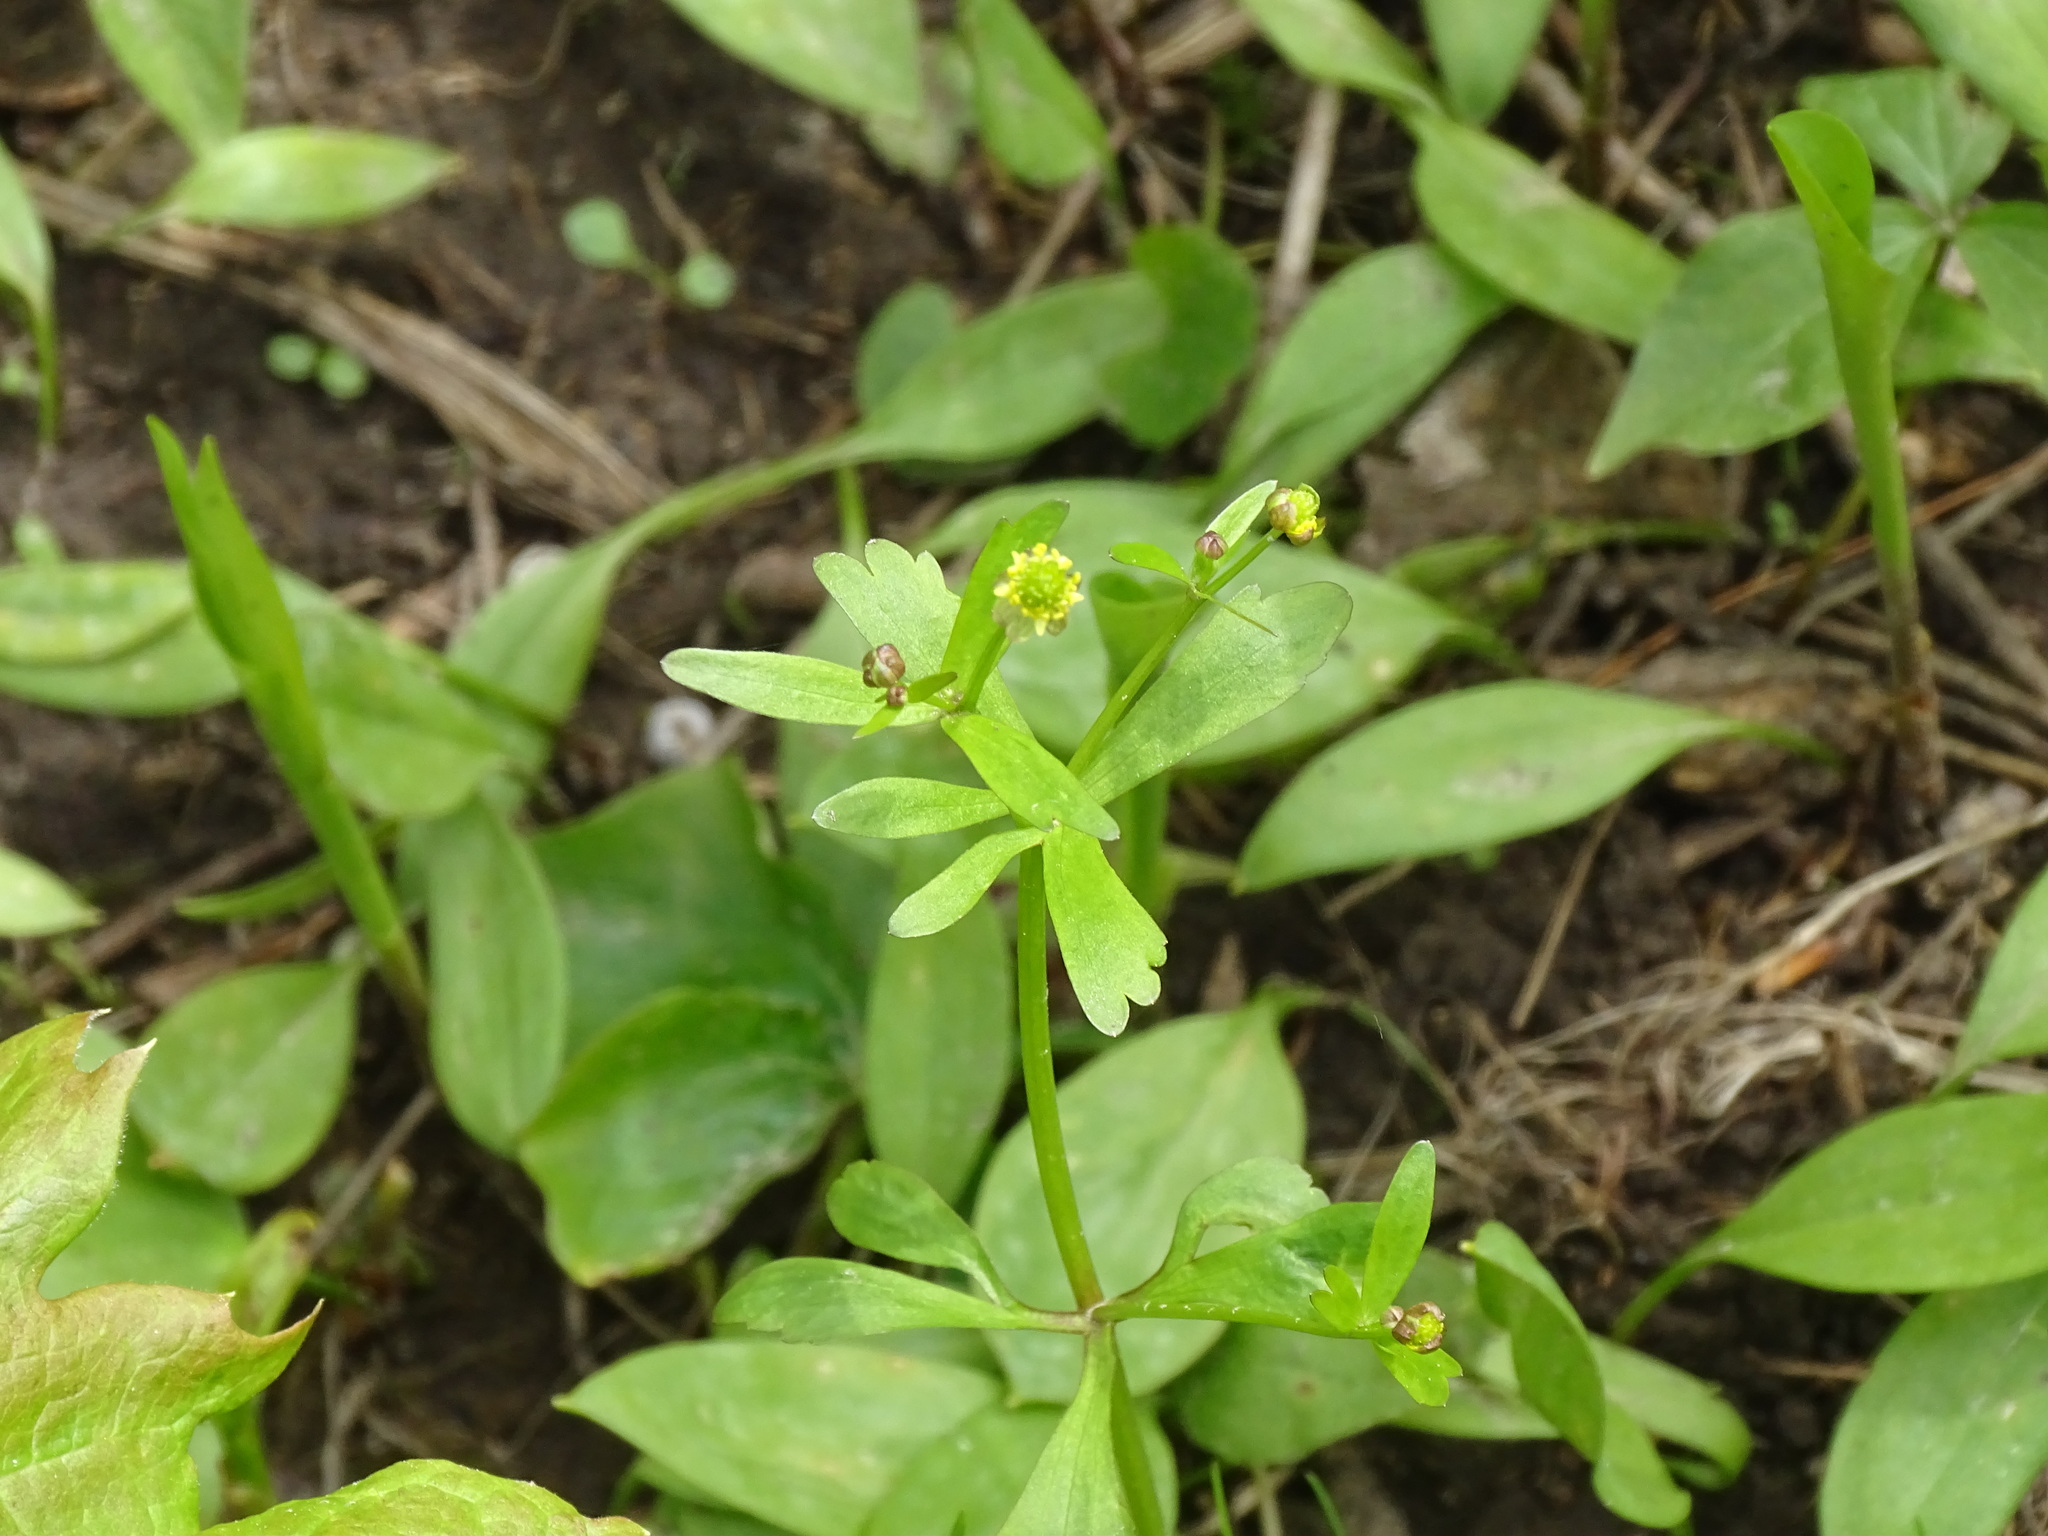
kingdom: Plantae
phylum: Tracheophyta
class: Magnoliopsida
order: Ranunculales
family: Ranunculaceae
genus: Ranunculus
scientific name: Ranunculus abortivus
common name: Early wood buttercup
